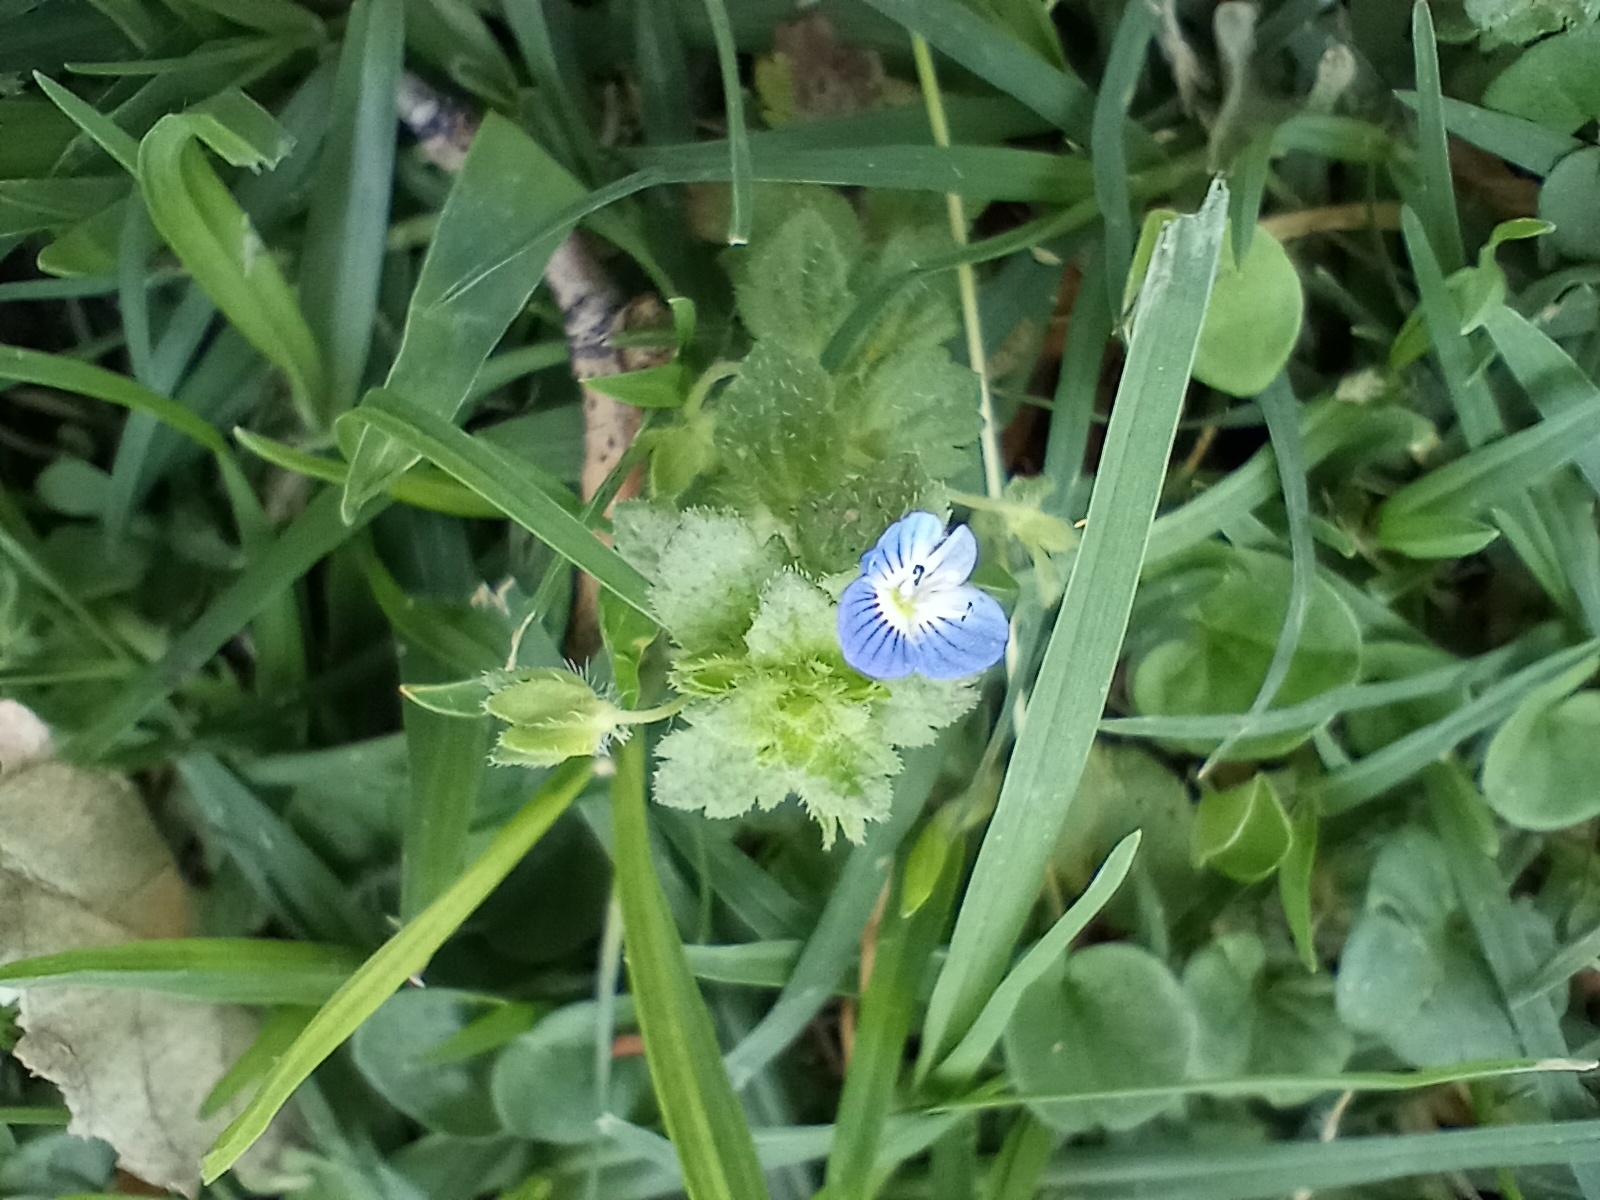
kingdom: Plantae
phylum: Tracheophyta
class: Magnoliopsida
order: Lamiales
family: Plantaginaceae
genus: Veronica
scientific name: Veronica persica
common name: Common field-speedwell
